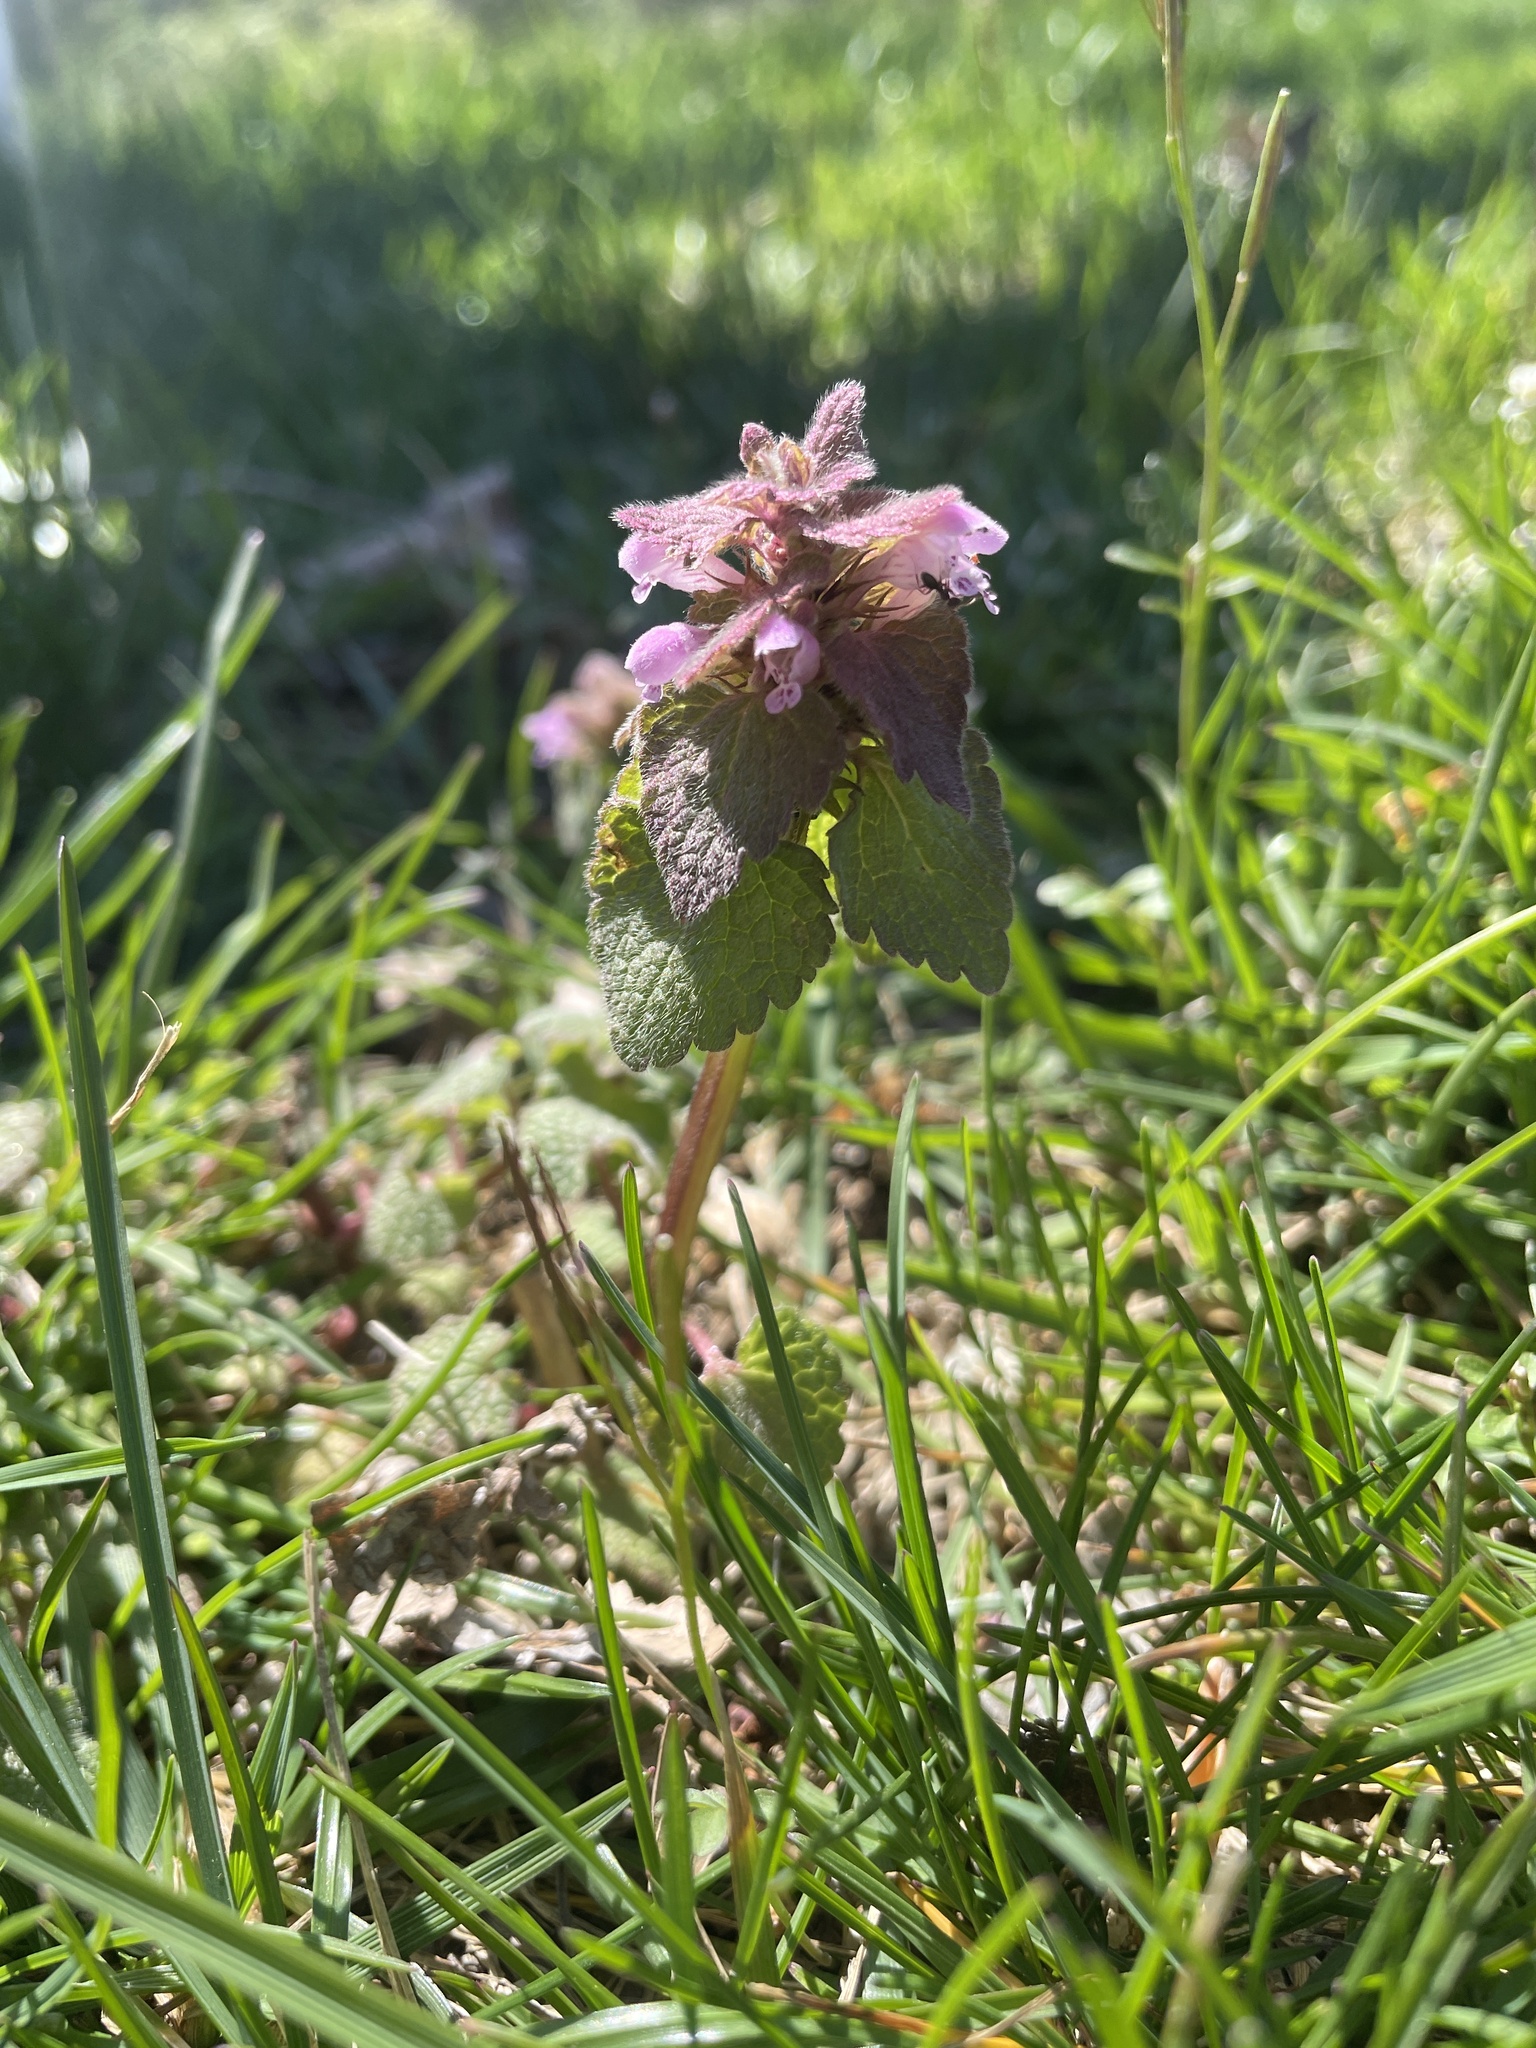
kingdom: Plantae
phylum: Tracheophyta
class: Magnoliopsida
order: Lamiales
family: Lamiaceae
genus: Lamium
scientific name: Lamium purpureum
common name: Red dead-nettle
